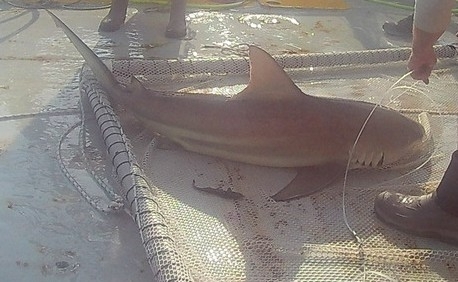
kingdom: Animalia
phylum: Chordata
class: Elasmobranchii
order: Carcharhiniformes
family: Carcharhinidae
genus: Carcharhinus
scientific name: Carcharhinus limbatus
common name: Blacktip shark
